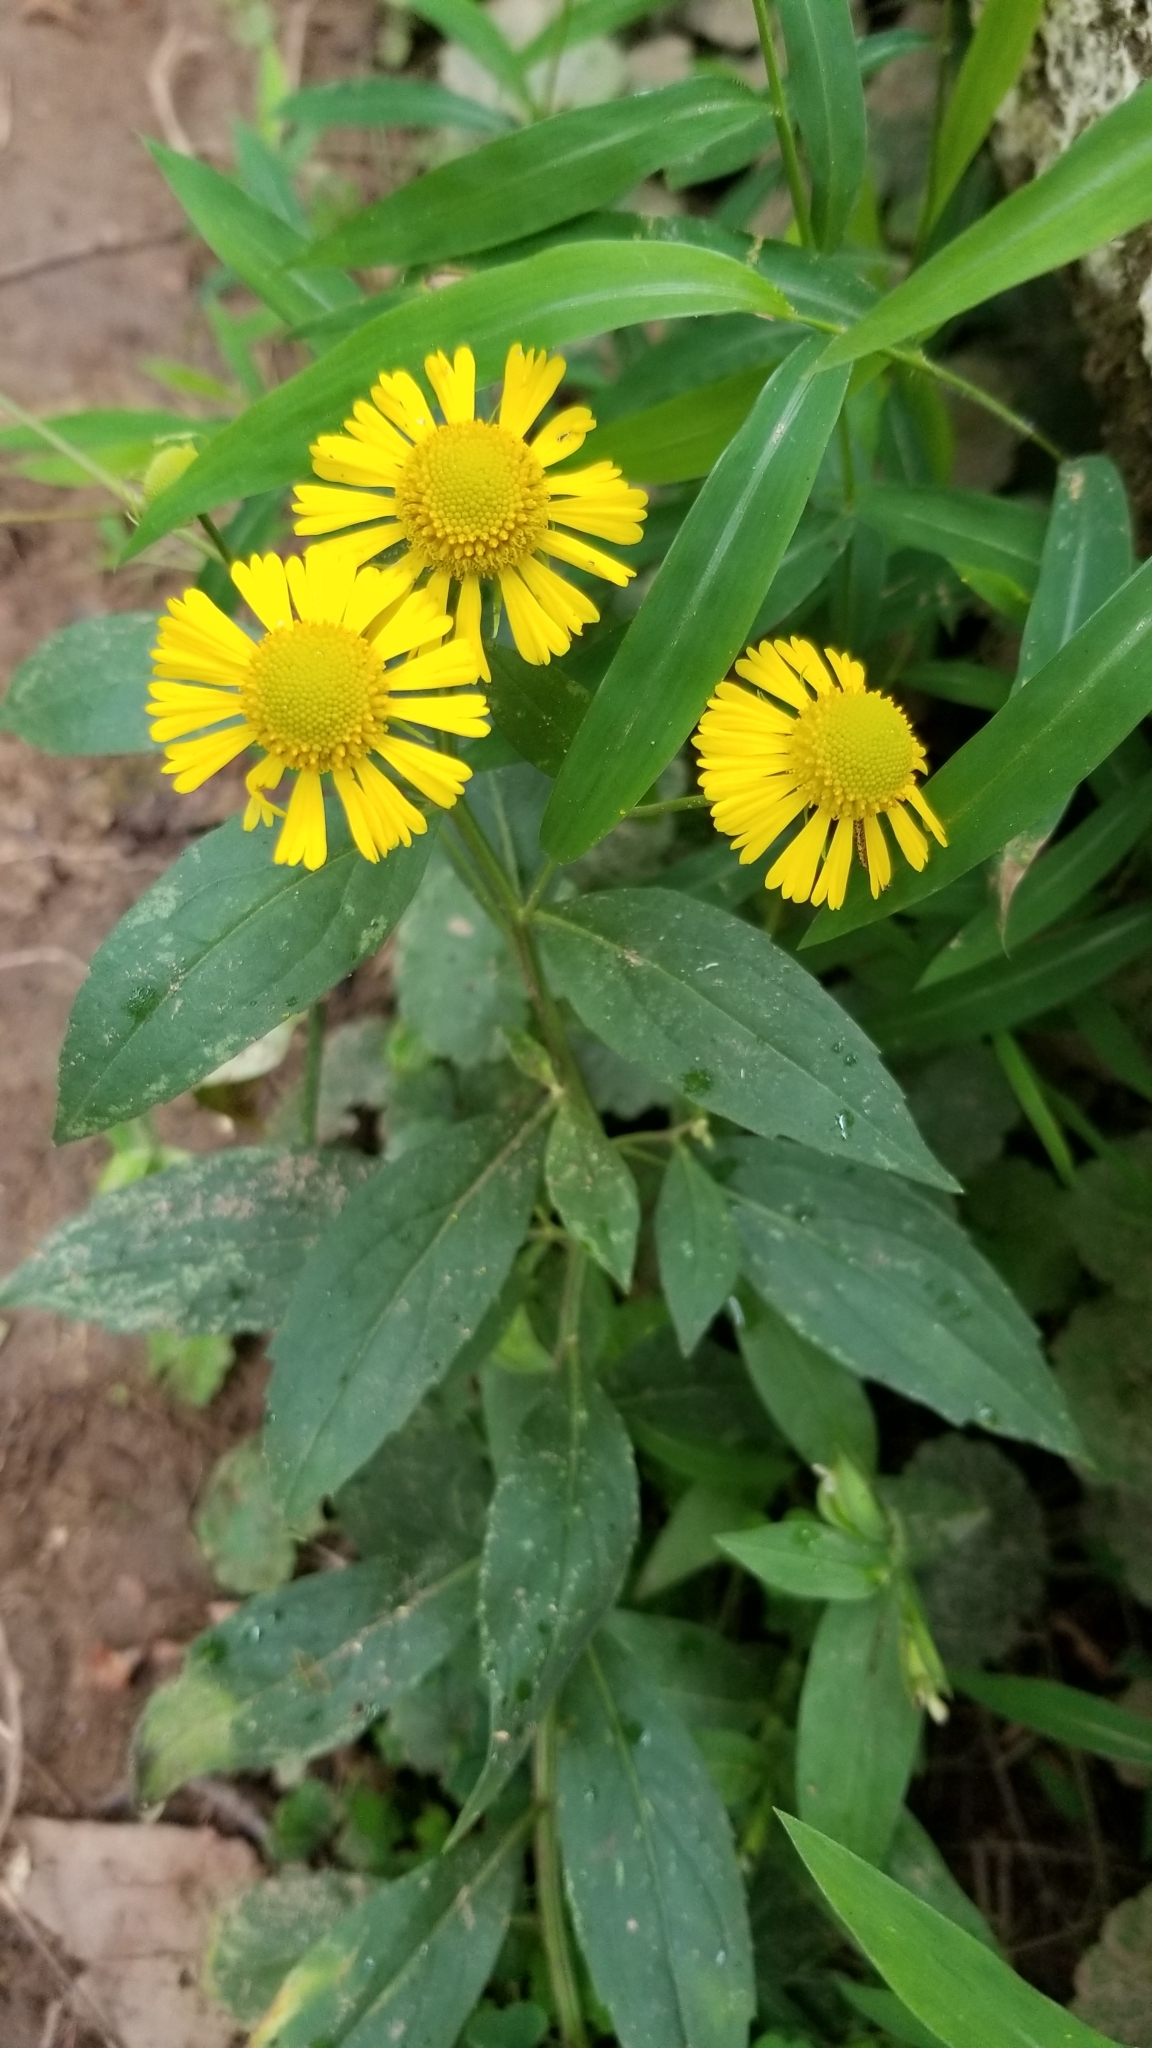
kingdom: Plantae
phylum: Tracheophyta
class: Magnoliopsida
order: Asterales
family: Asteraceae
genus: Helenium
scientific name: Helenium autumnale
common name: Sneezeweed
